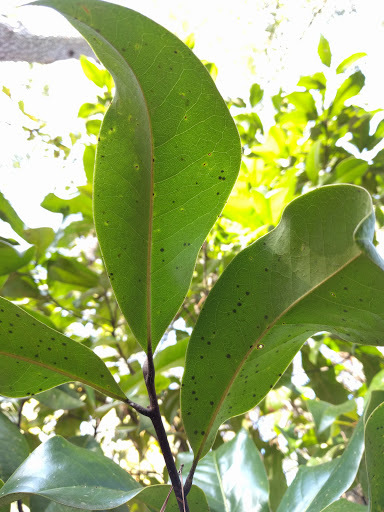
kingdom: Plantae
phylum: Tracheophyta
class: Magnoliopsida
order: Magnoliales
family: Magnoliaceae
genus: Magnolia
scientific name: Magnolia grandiflora
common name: Southern magnolia
